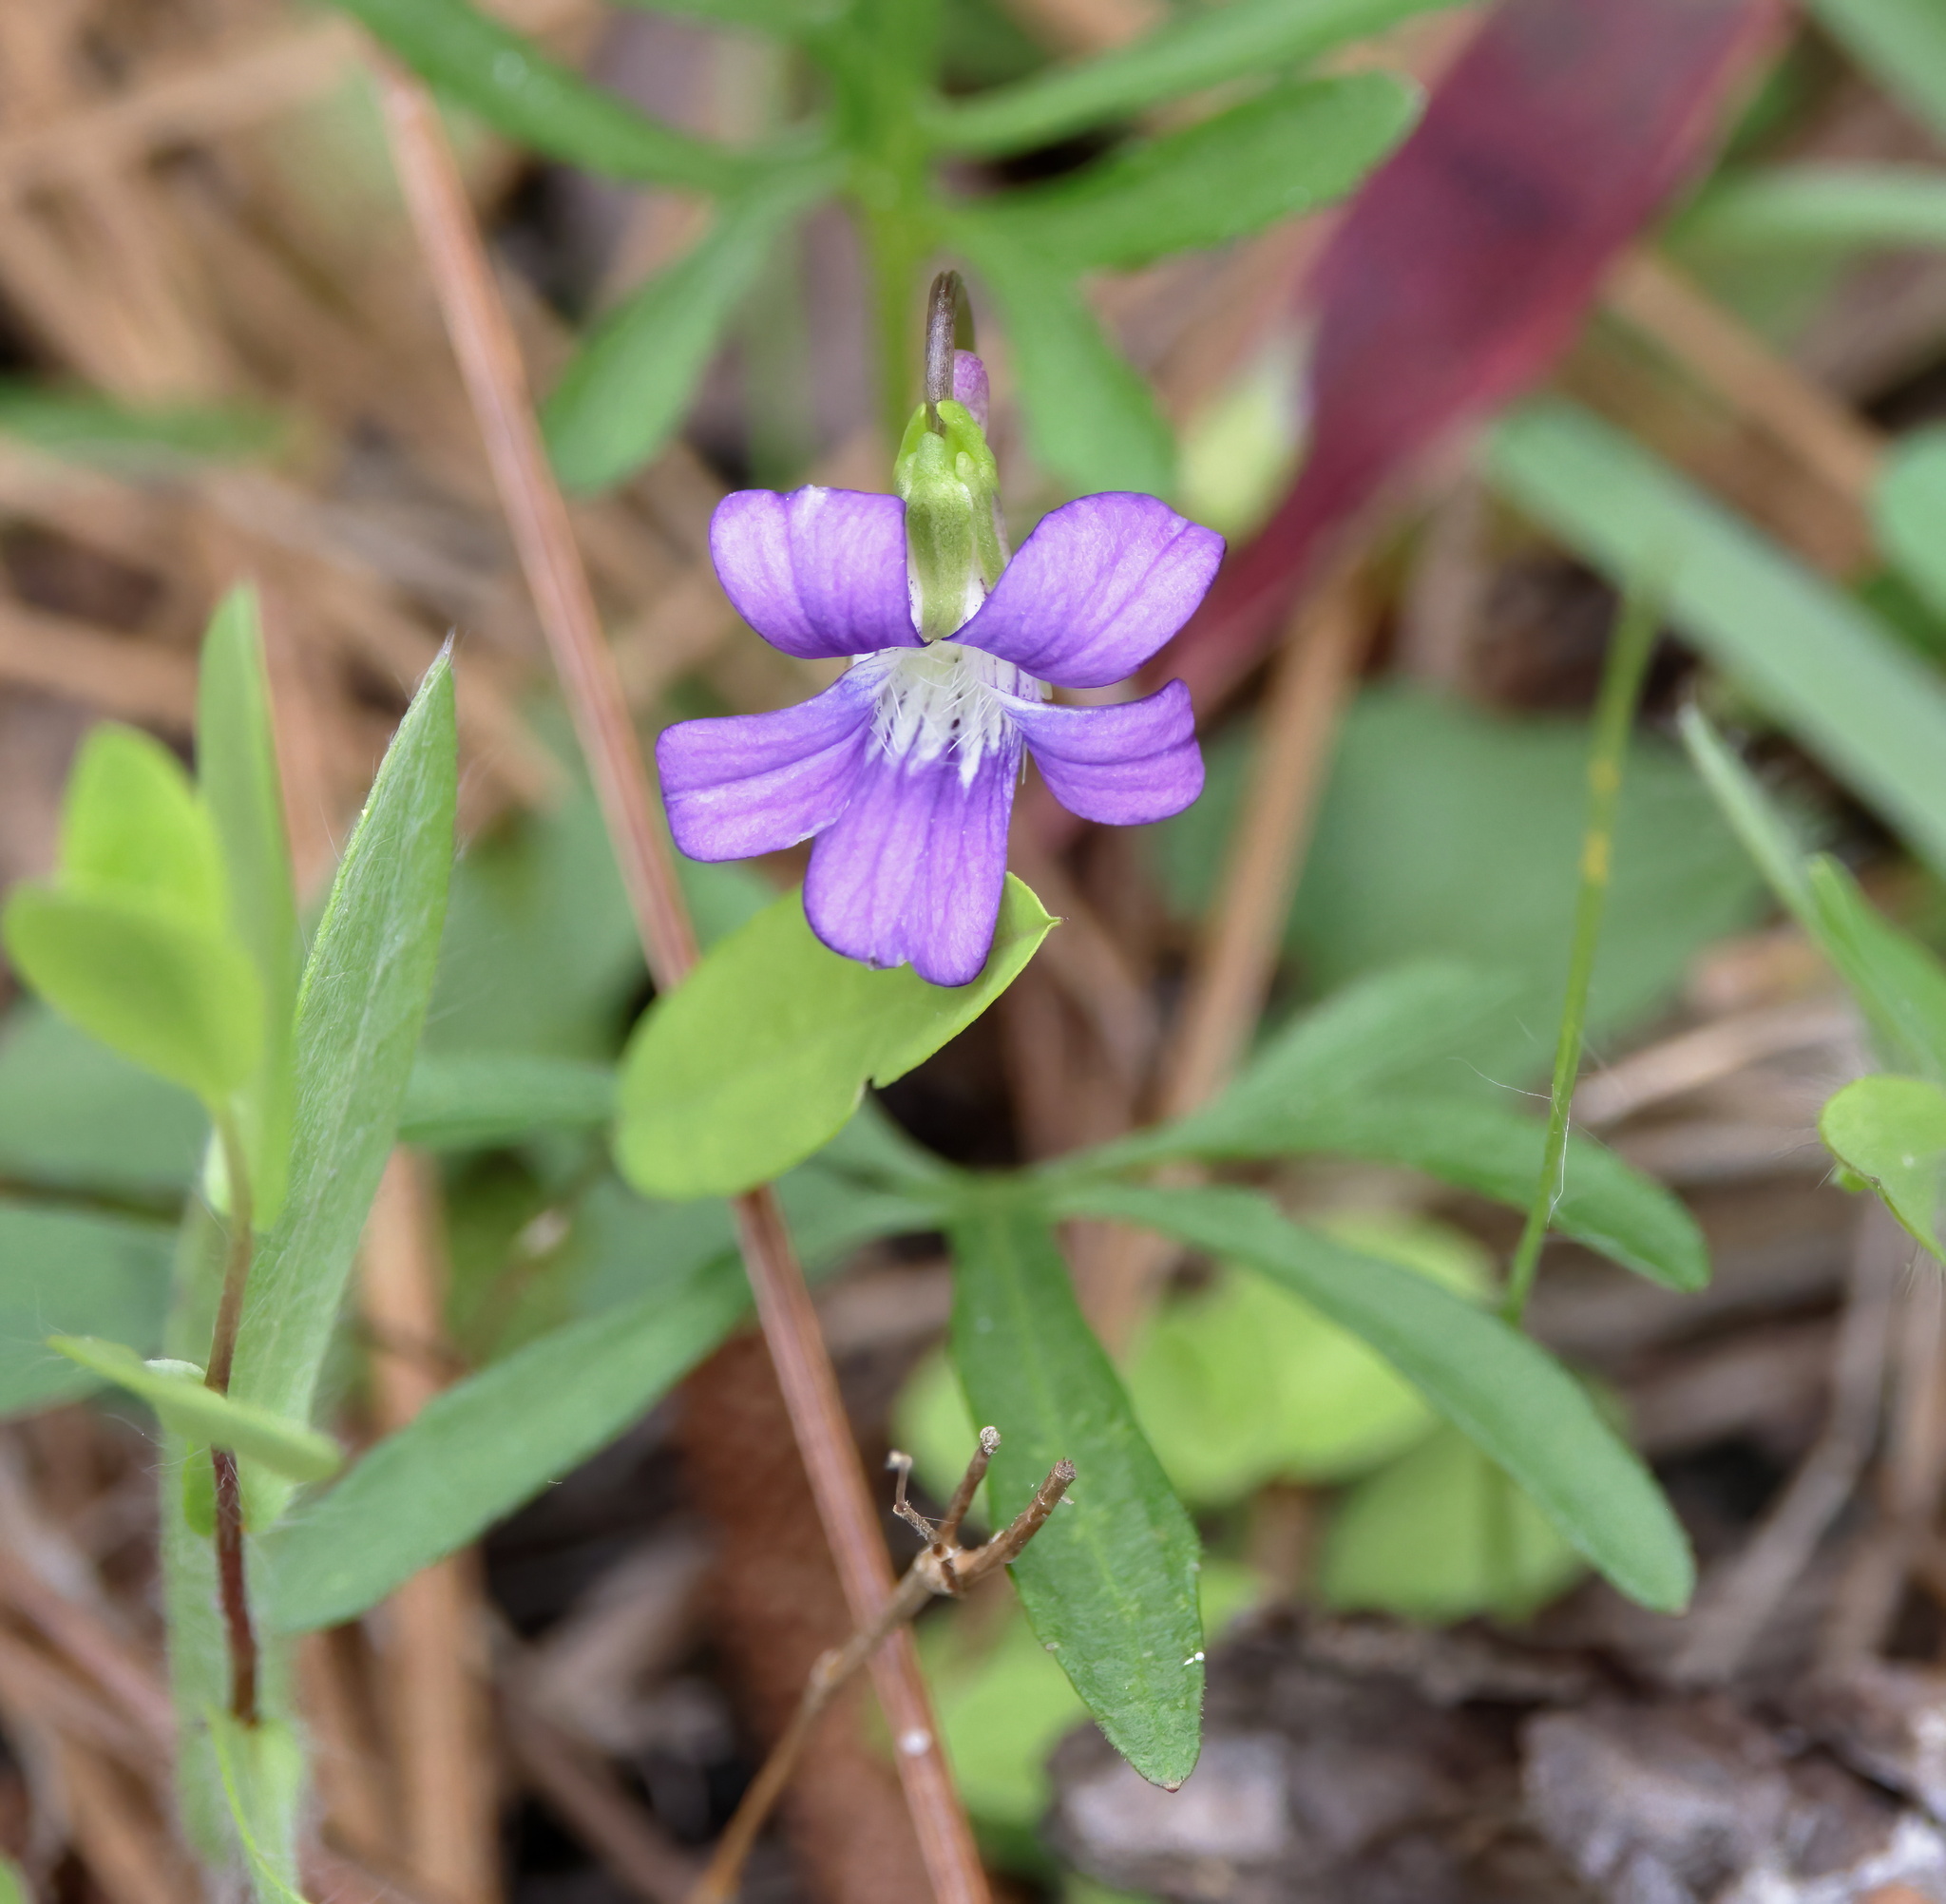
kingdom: Plantae
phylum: Tracheophyta
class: Magnoliopsida
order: Malpighiales
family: Violaceae
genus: Viola
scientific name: Viola septemloba
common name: Southern coast violet
